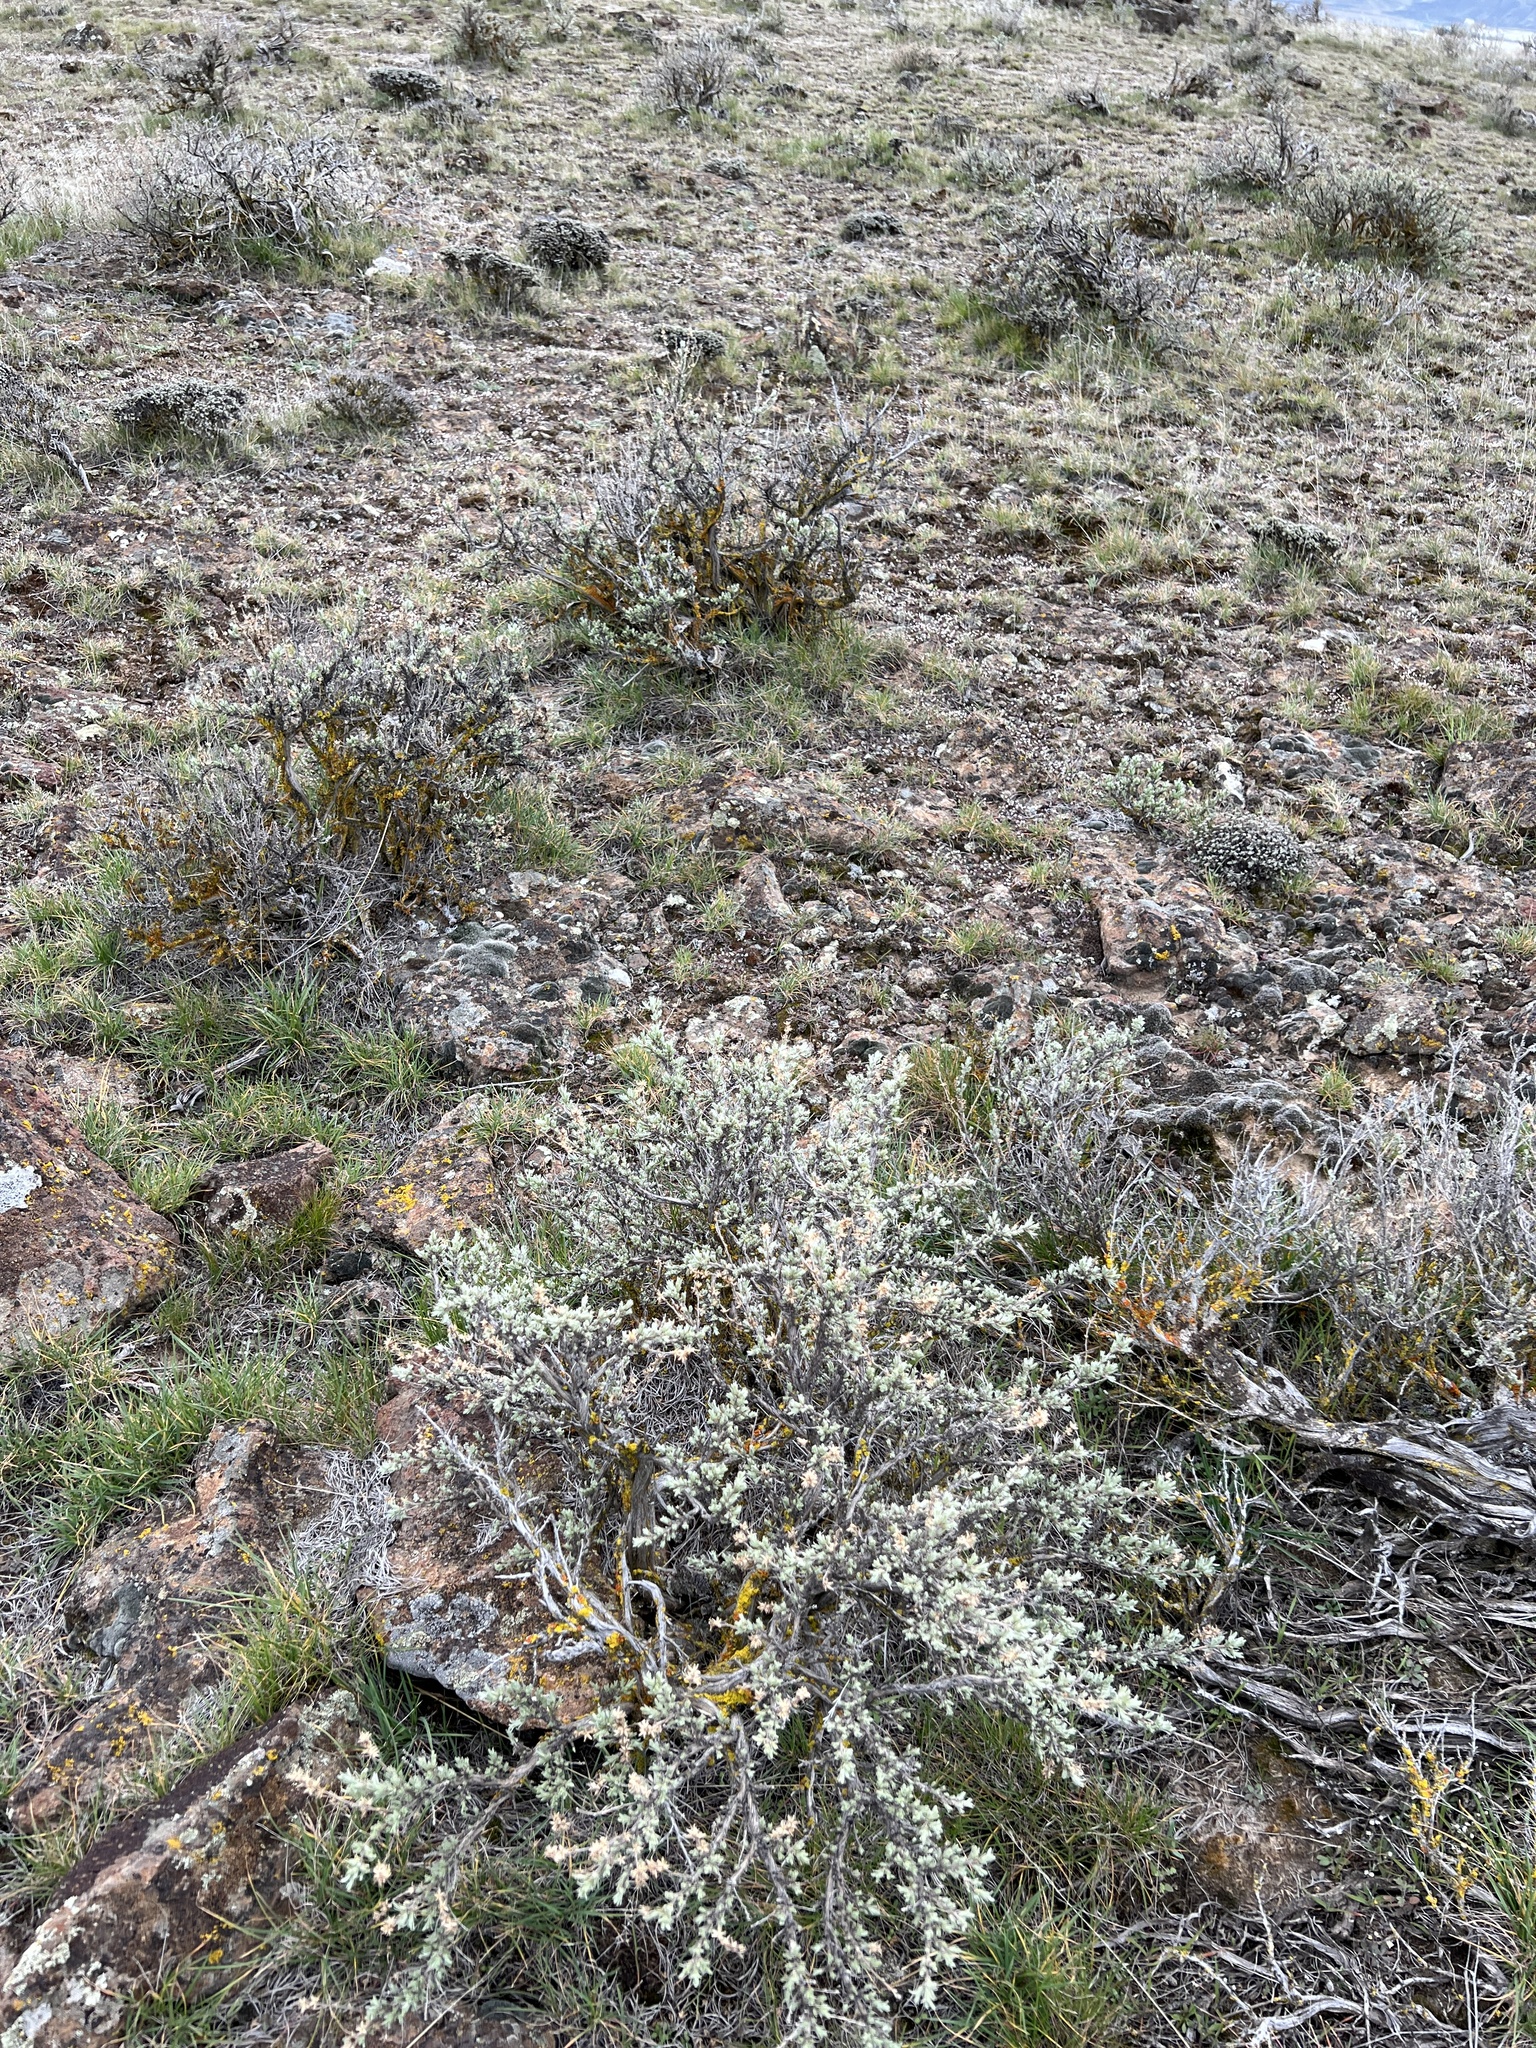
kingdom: Plantae
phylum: Tracheophyta
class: Magnoliopsida
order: Asterales
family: Asteraceae
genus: Artemisia
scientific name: Artemisia rigida
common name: Scabland sagebrush
